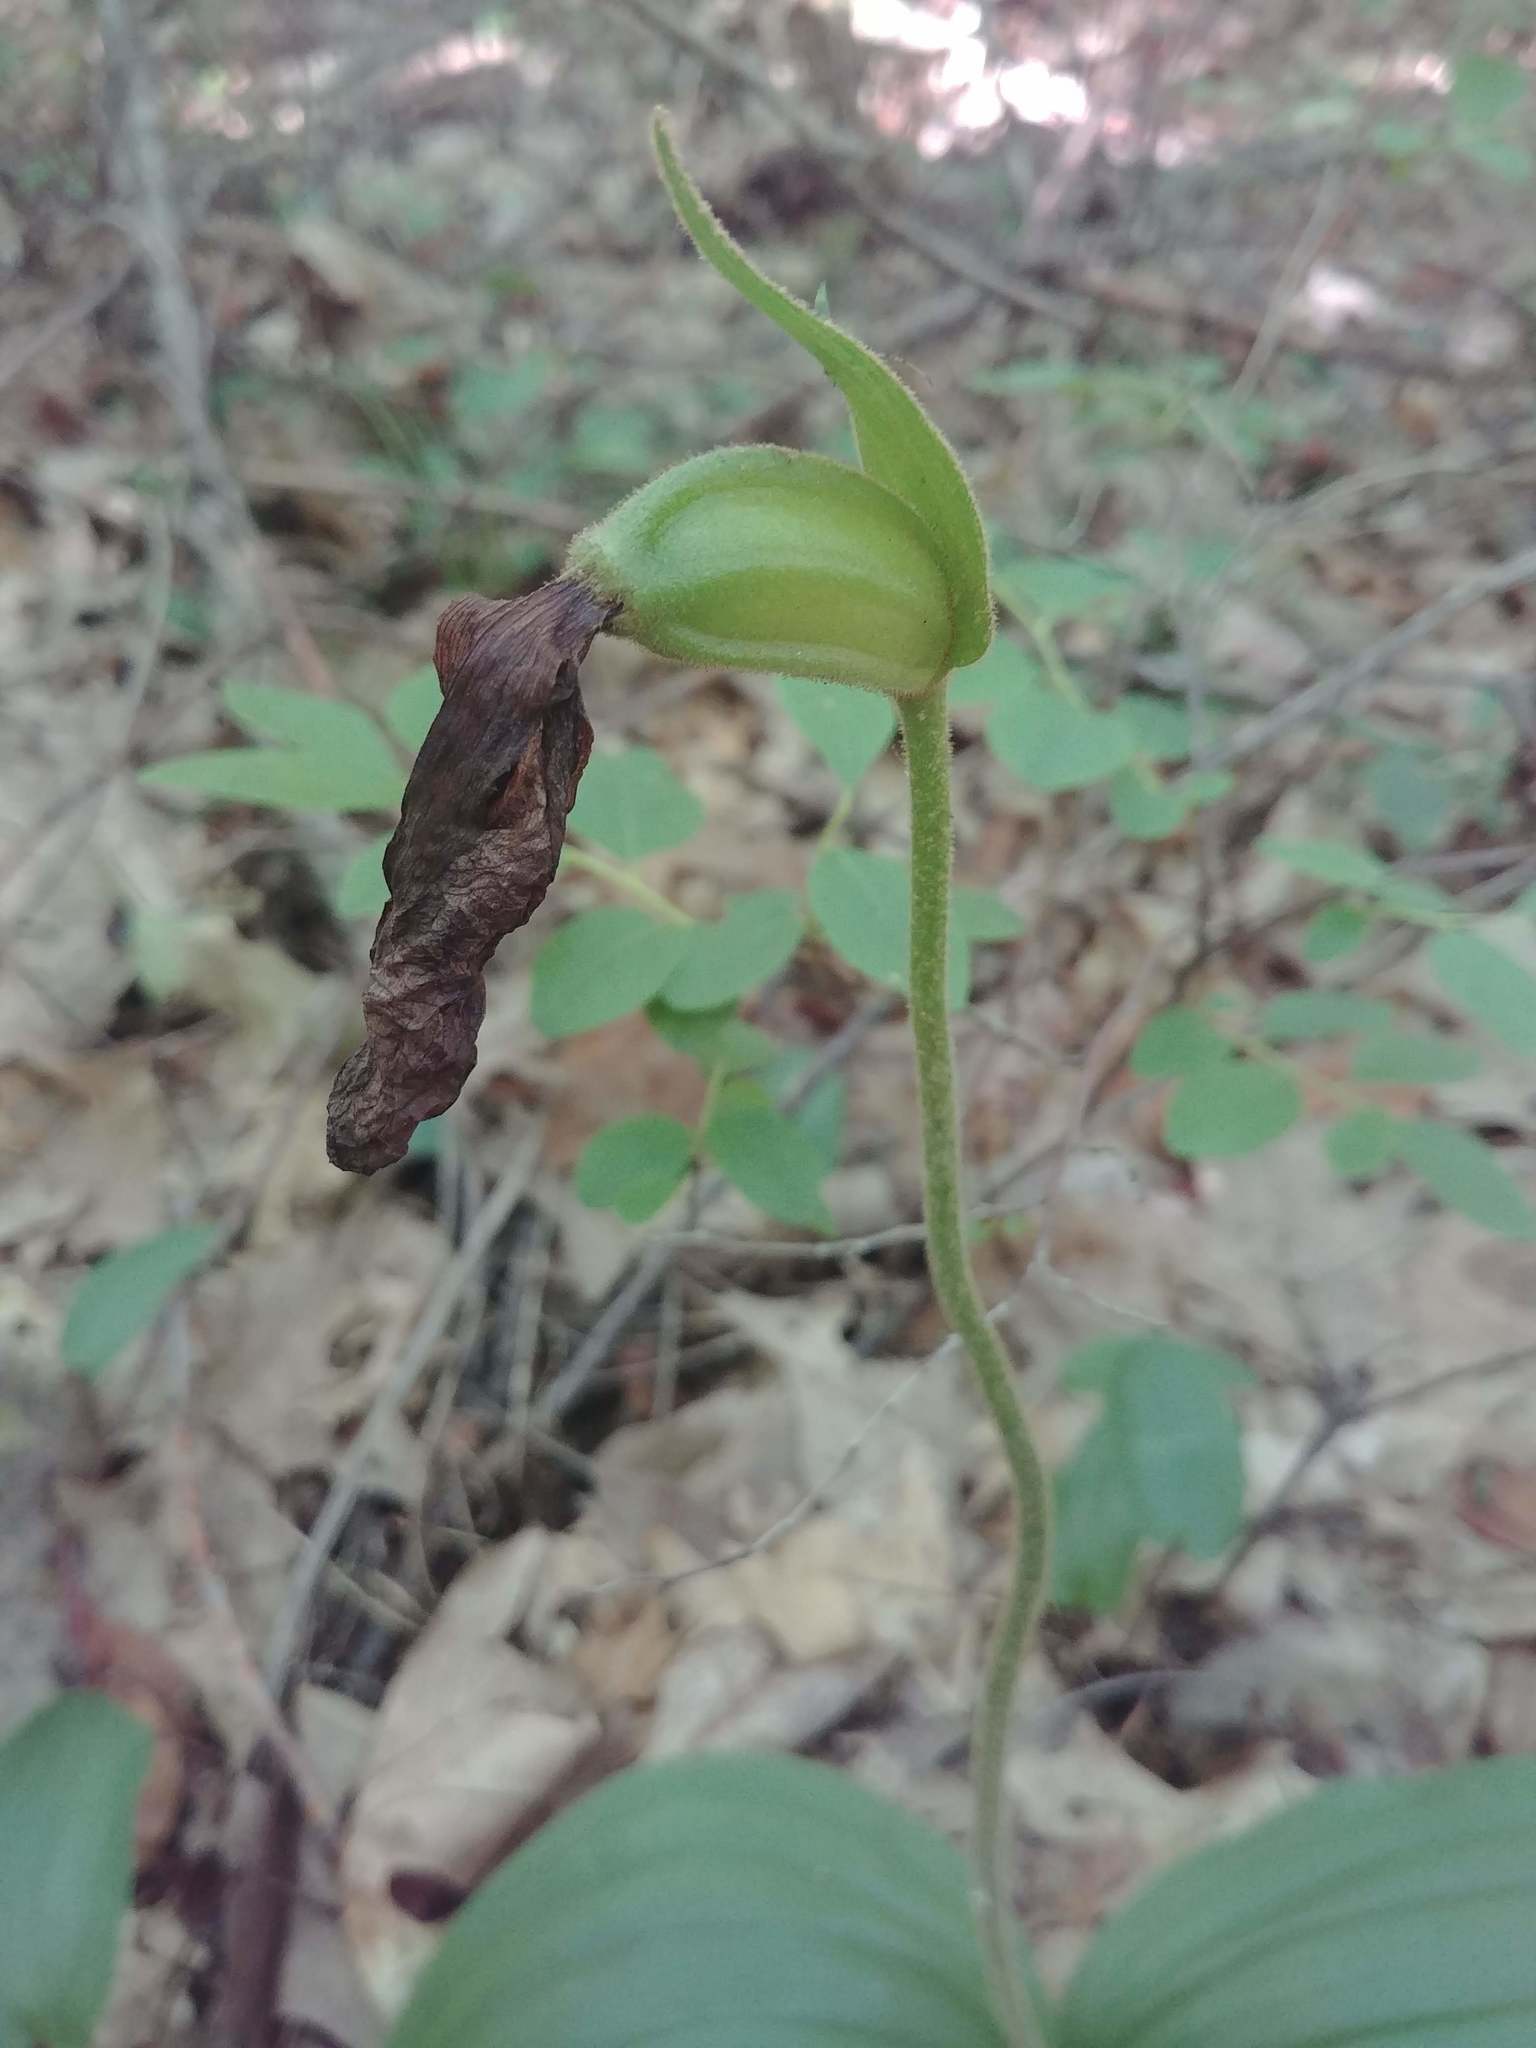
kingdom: Plantae
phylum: Tracheophyta
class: Liliopsida
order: Asparagales
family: Orchidaceae
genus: Cypripedium
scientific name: Cypripedium acaule
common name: Pink lady's-slipper
